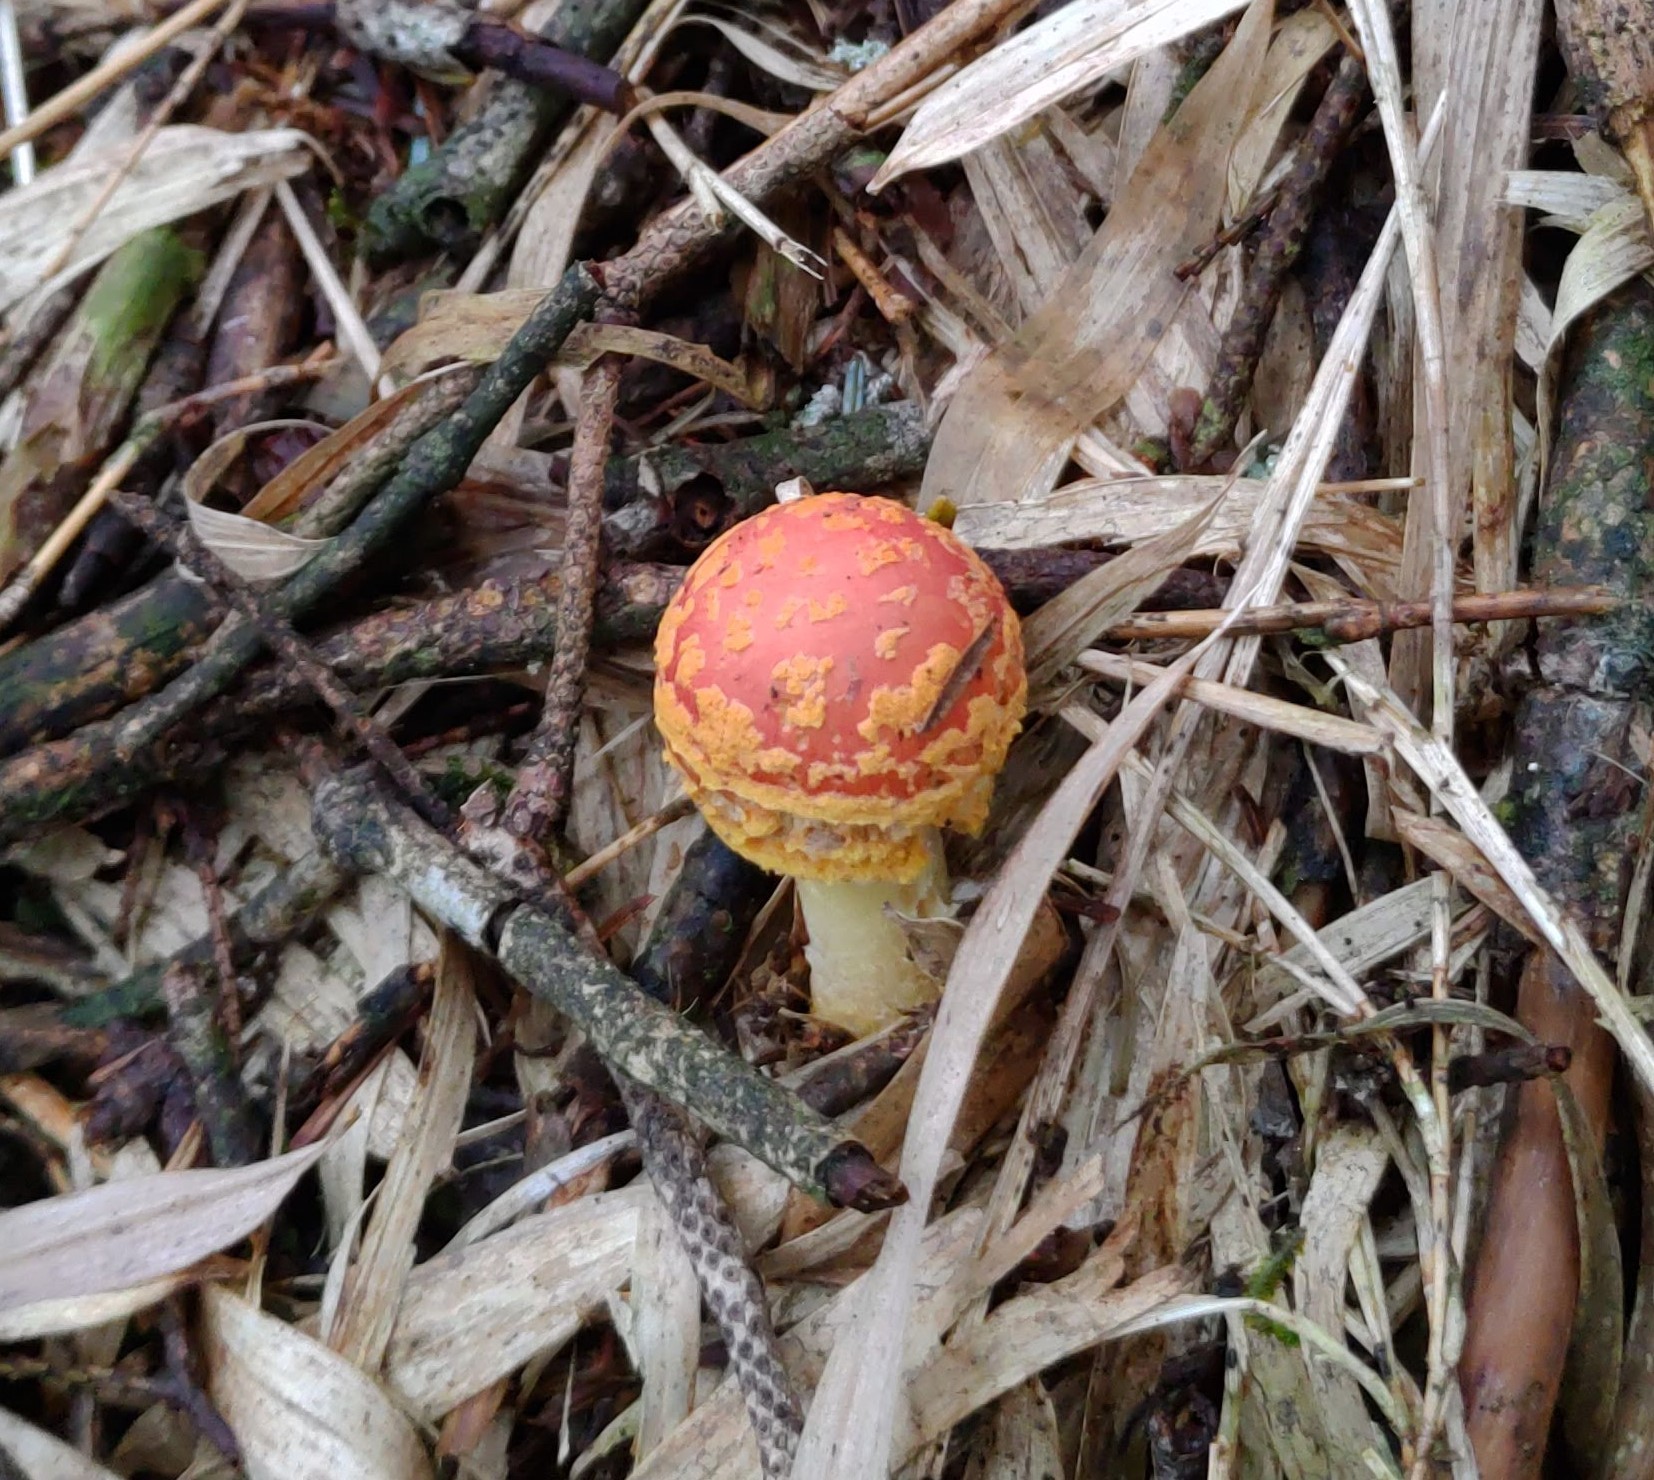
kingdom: Fungi
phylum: Basidiomycota
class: Agaricomycetes
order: Agaricales
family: Amanitaceae
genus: Amanita
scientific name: Amanita rubrovolvata
